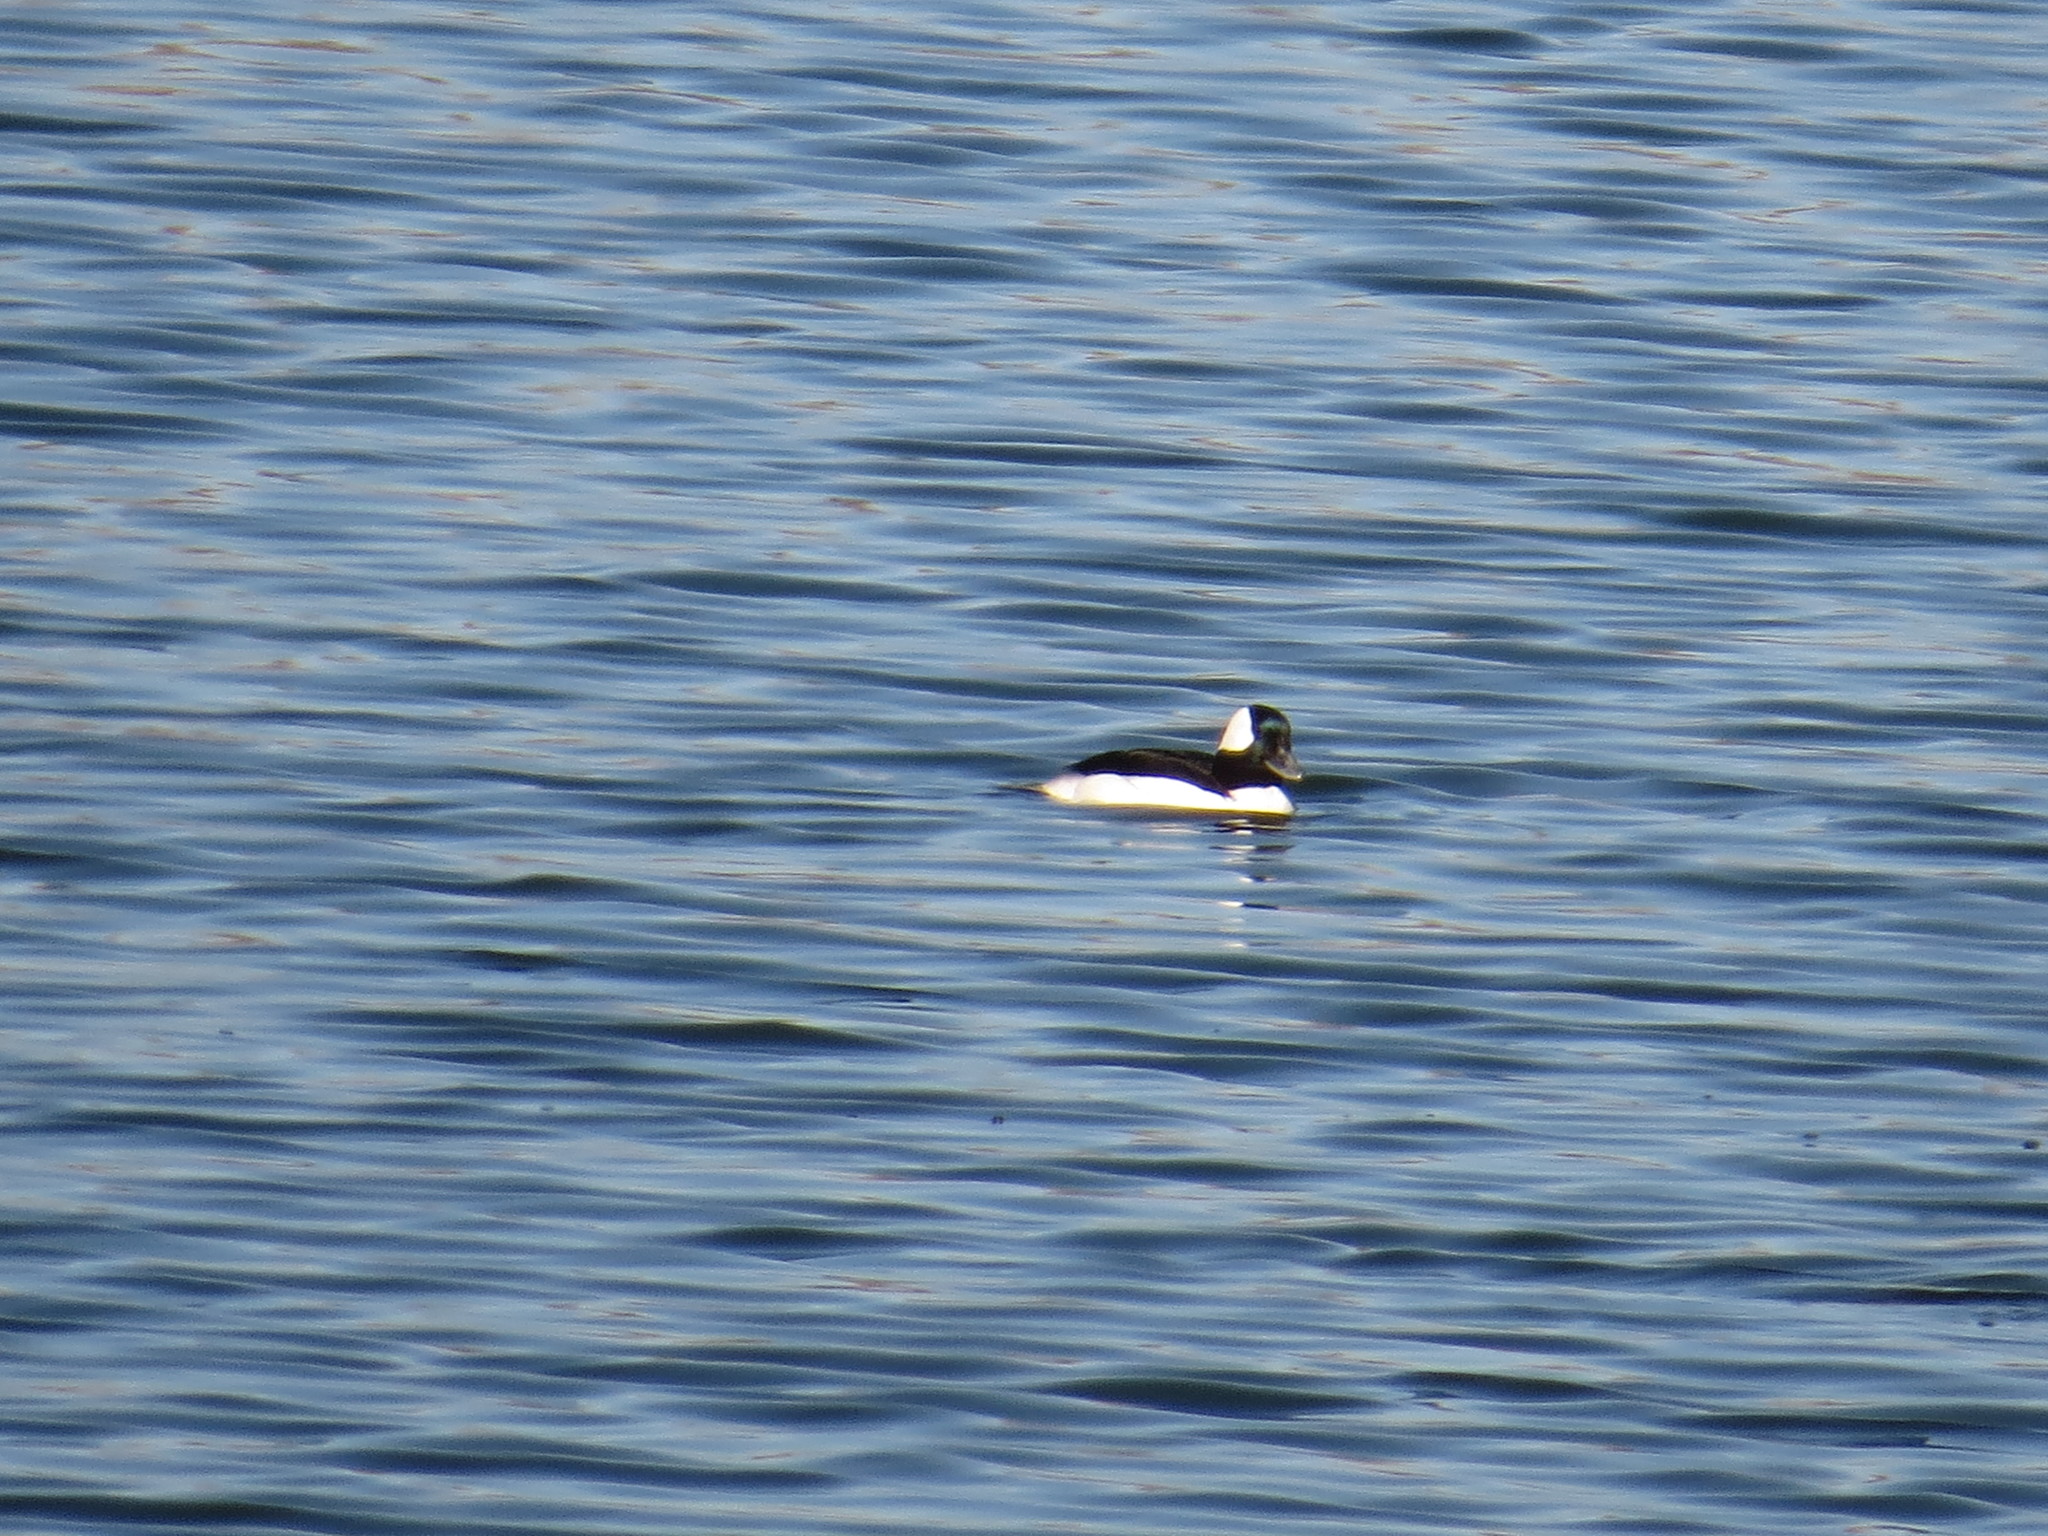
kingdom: Animalia
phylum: Chordata
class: Aves
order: Anseriformes
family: Anatidae
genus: Bucephala
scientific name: Bucephala albeola
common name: Bufflehead
